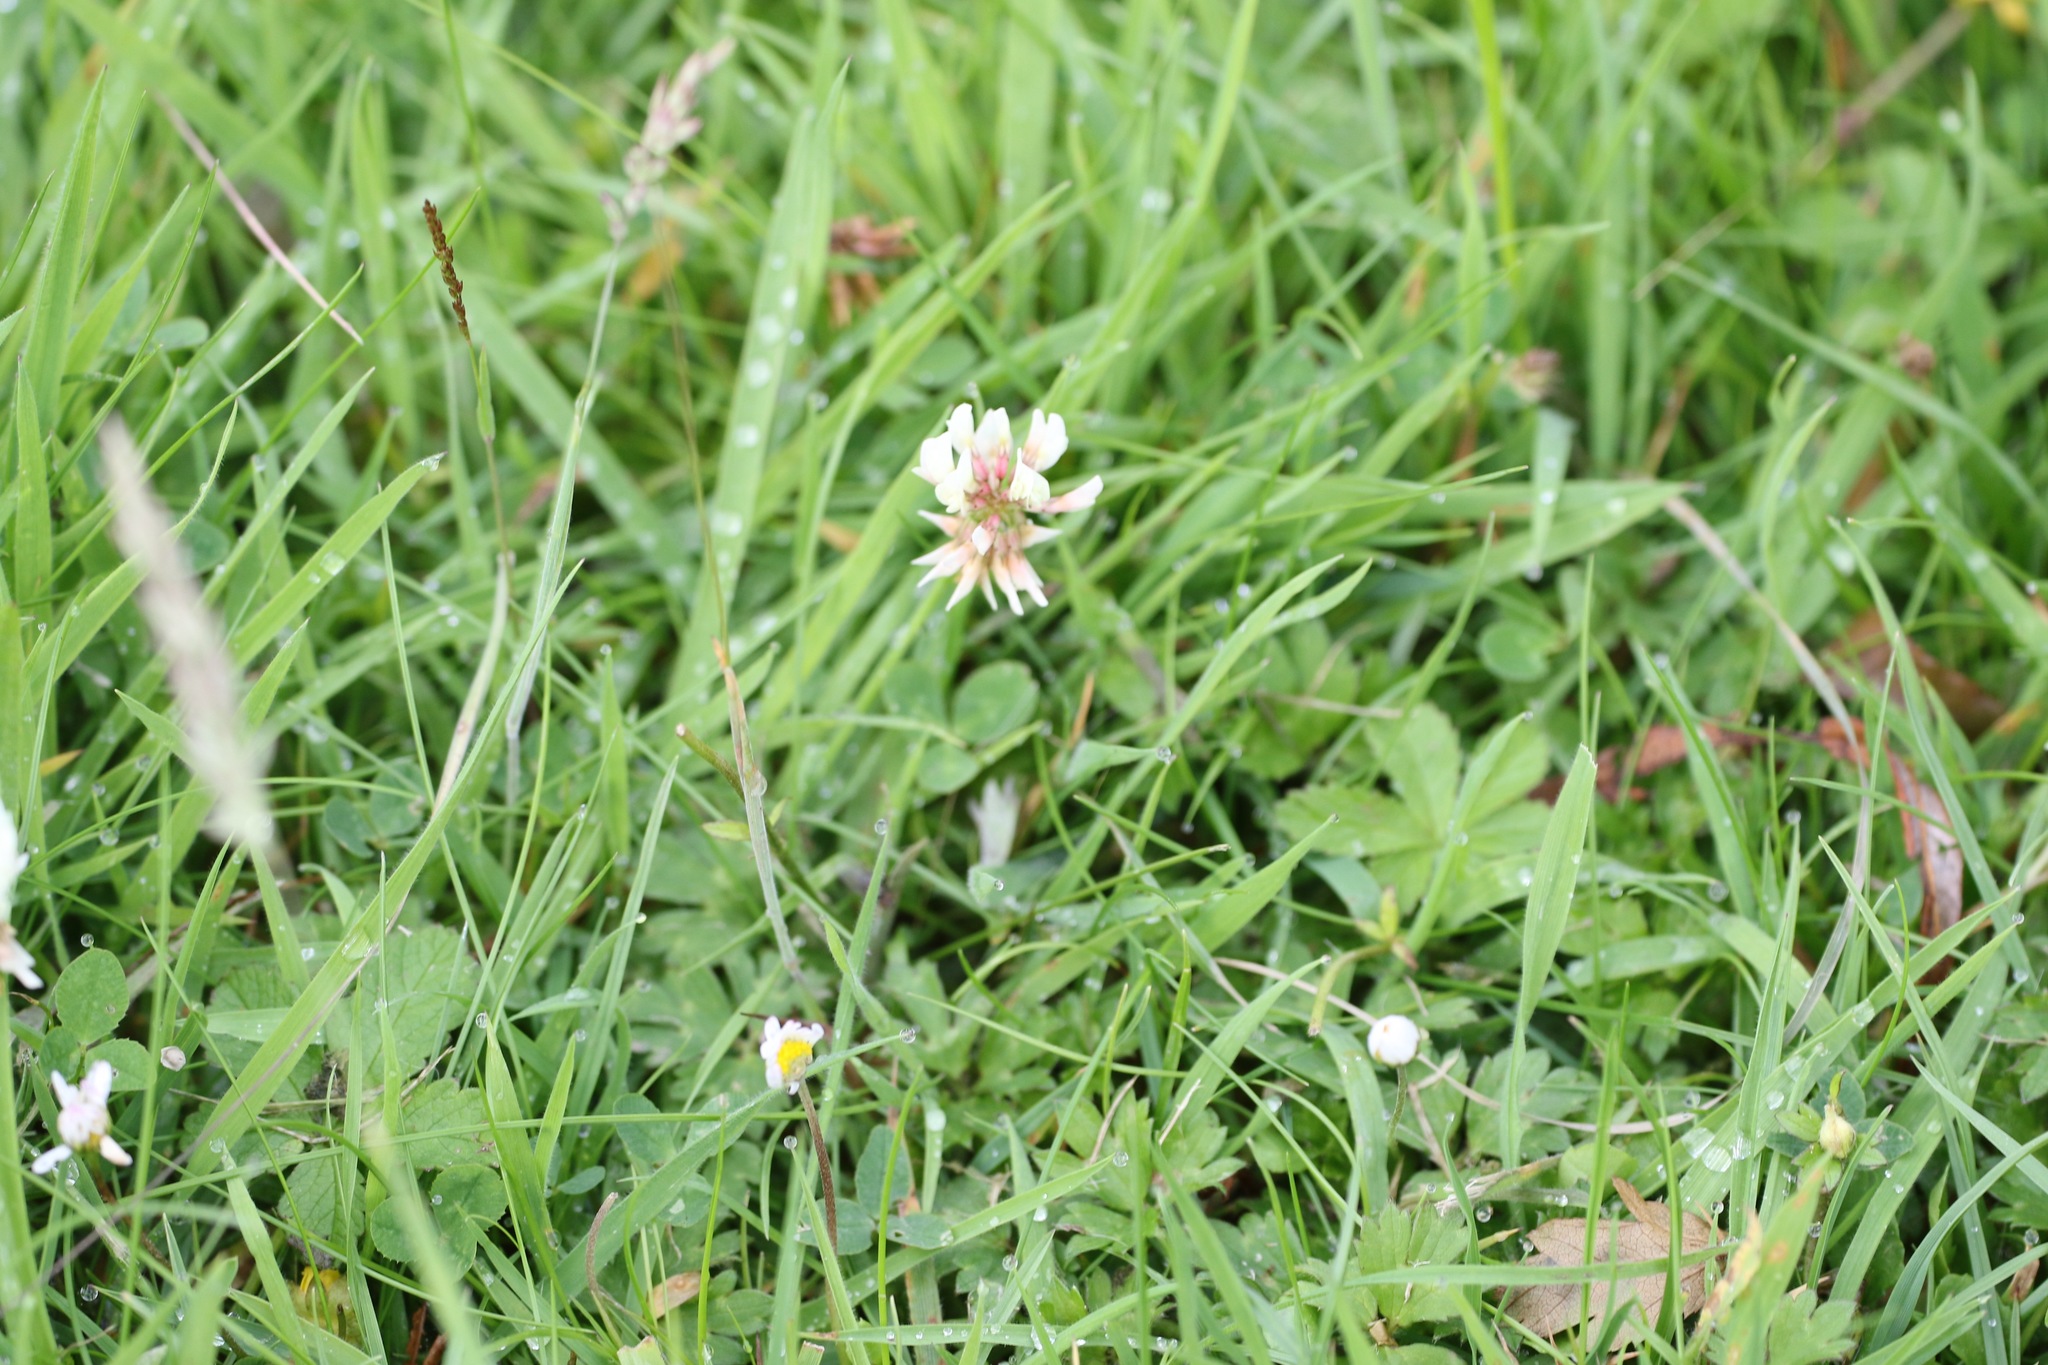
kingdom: Plantae
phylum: Tracheophyta
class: Magnoliopsida
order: Fabales
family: Fabaceae
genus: Trifolium
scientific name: Trifolium repens
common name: White clover
